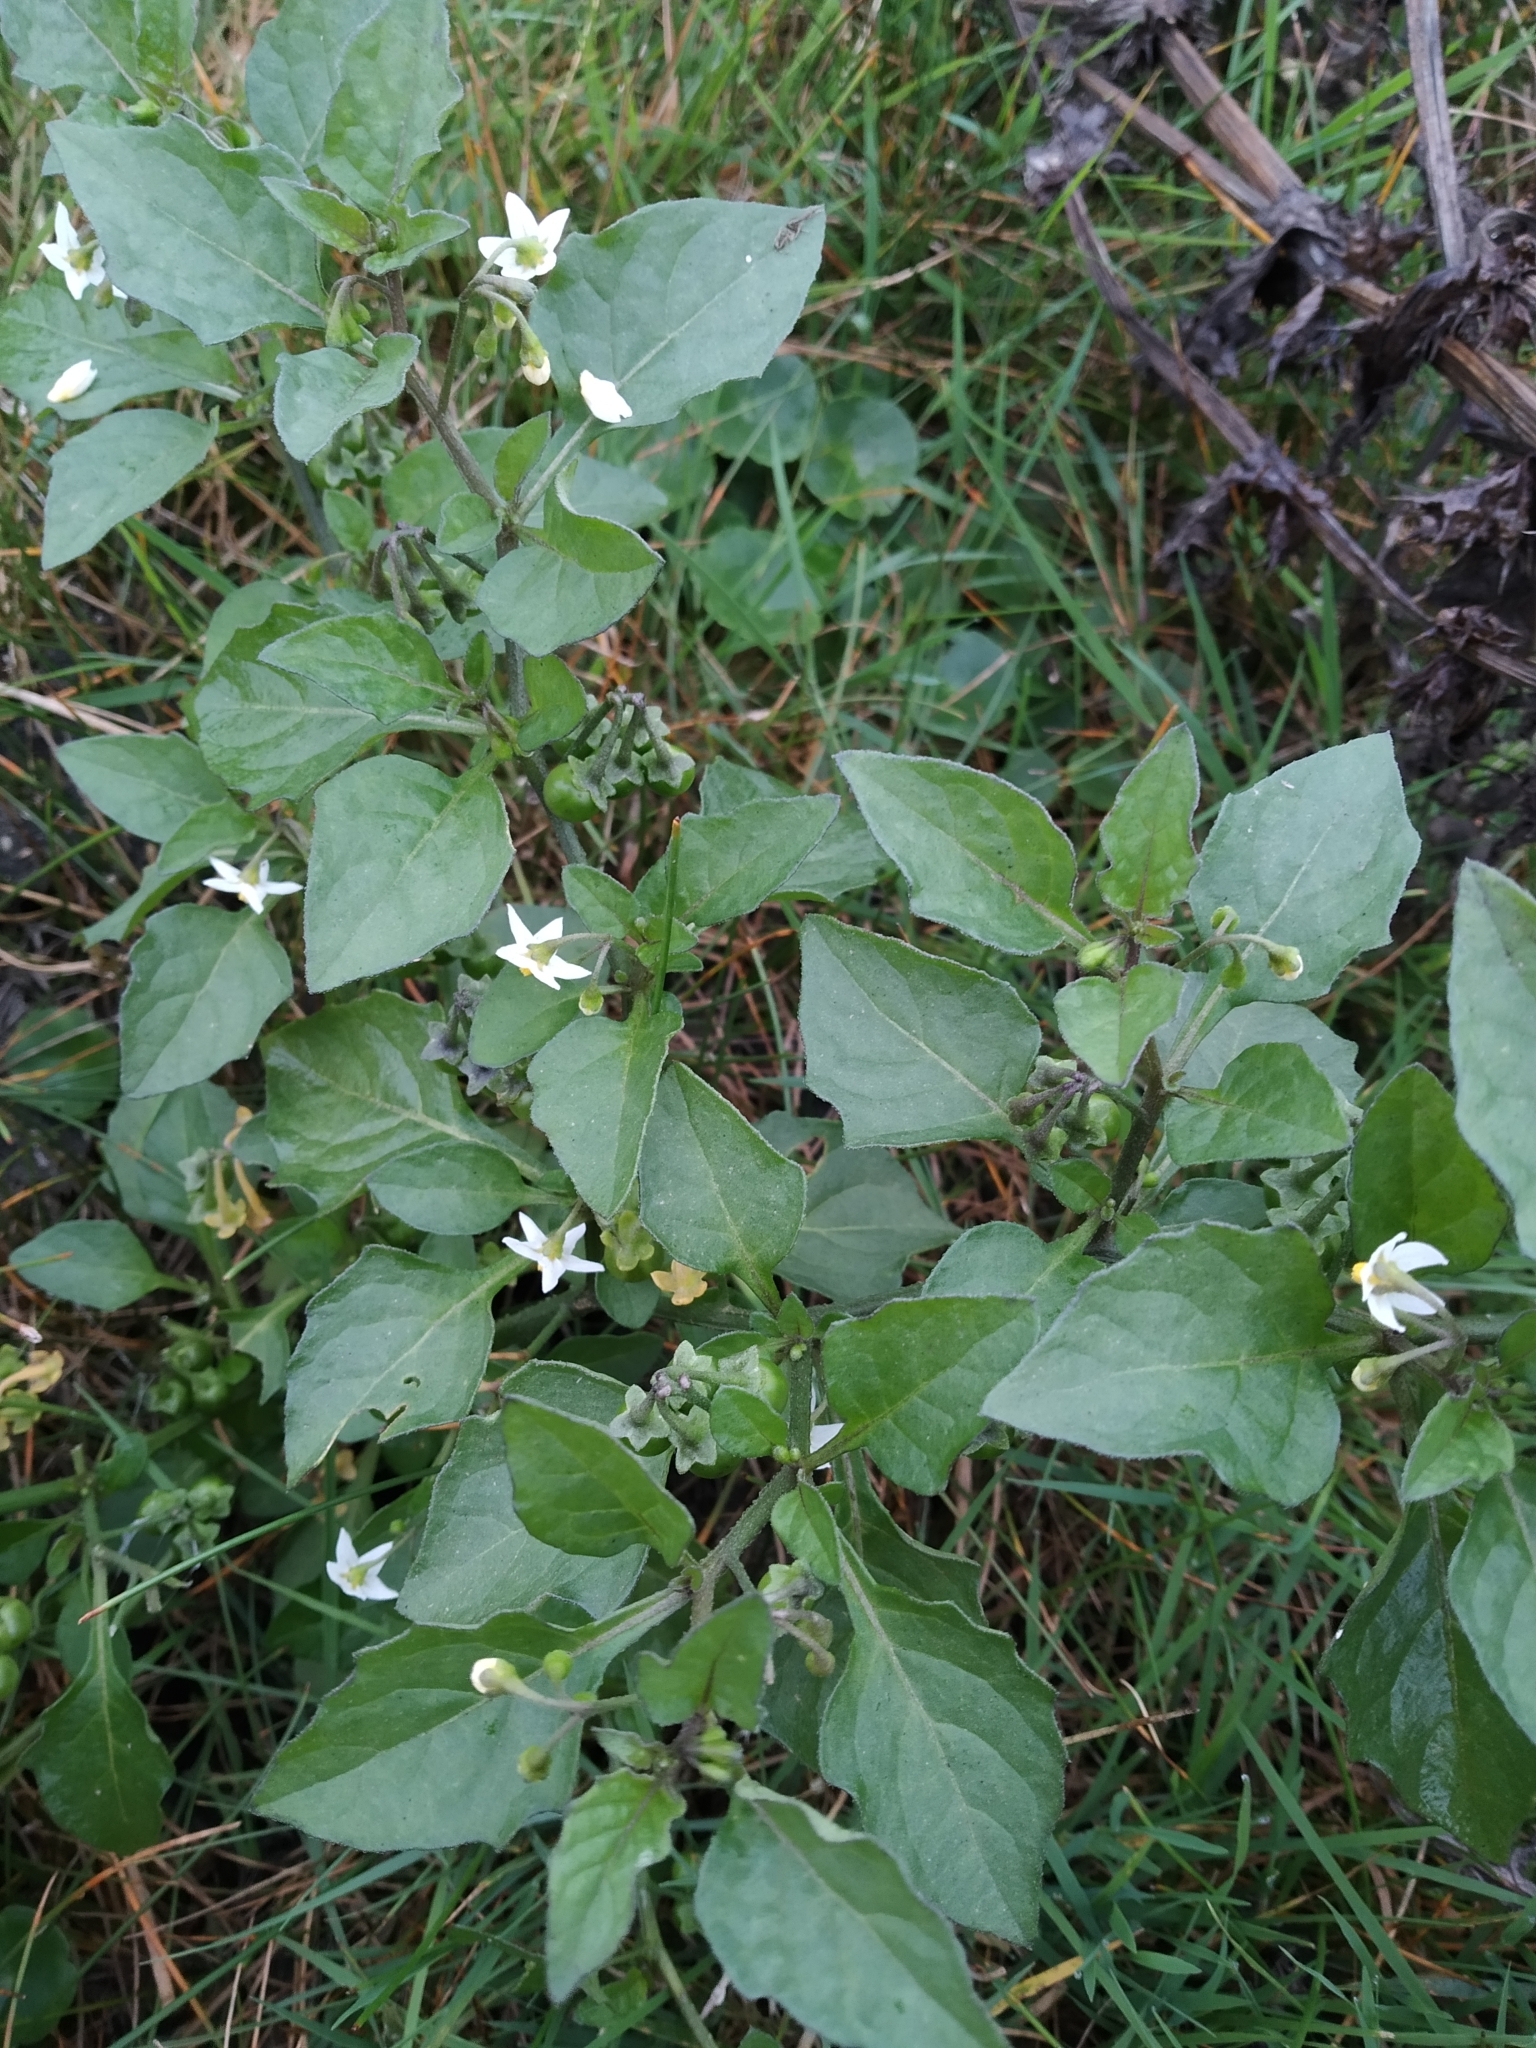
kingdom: Plantae
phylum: Tracheophyta
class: Magnoliopsida
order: Solanales
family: Solanaceae
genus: Solanum
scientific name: Solanum nigrum
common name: Black nightshade
